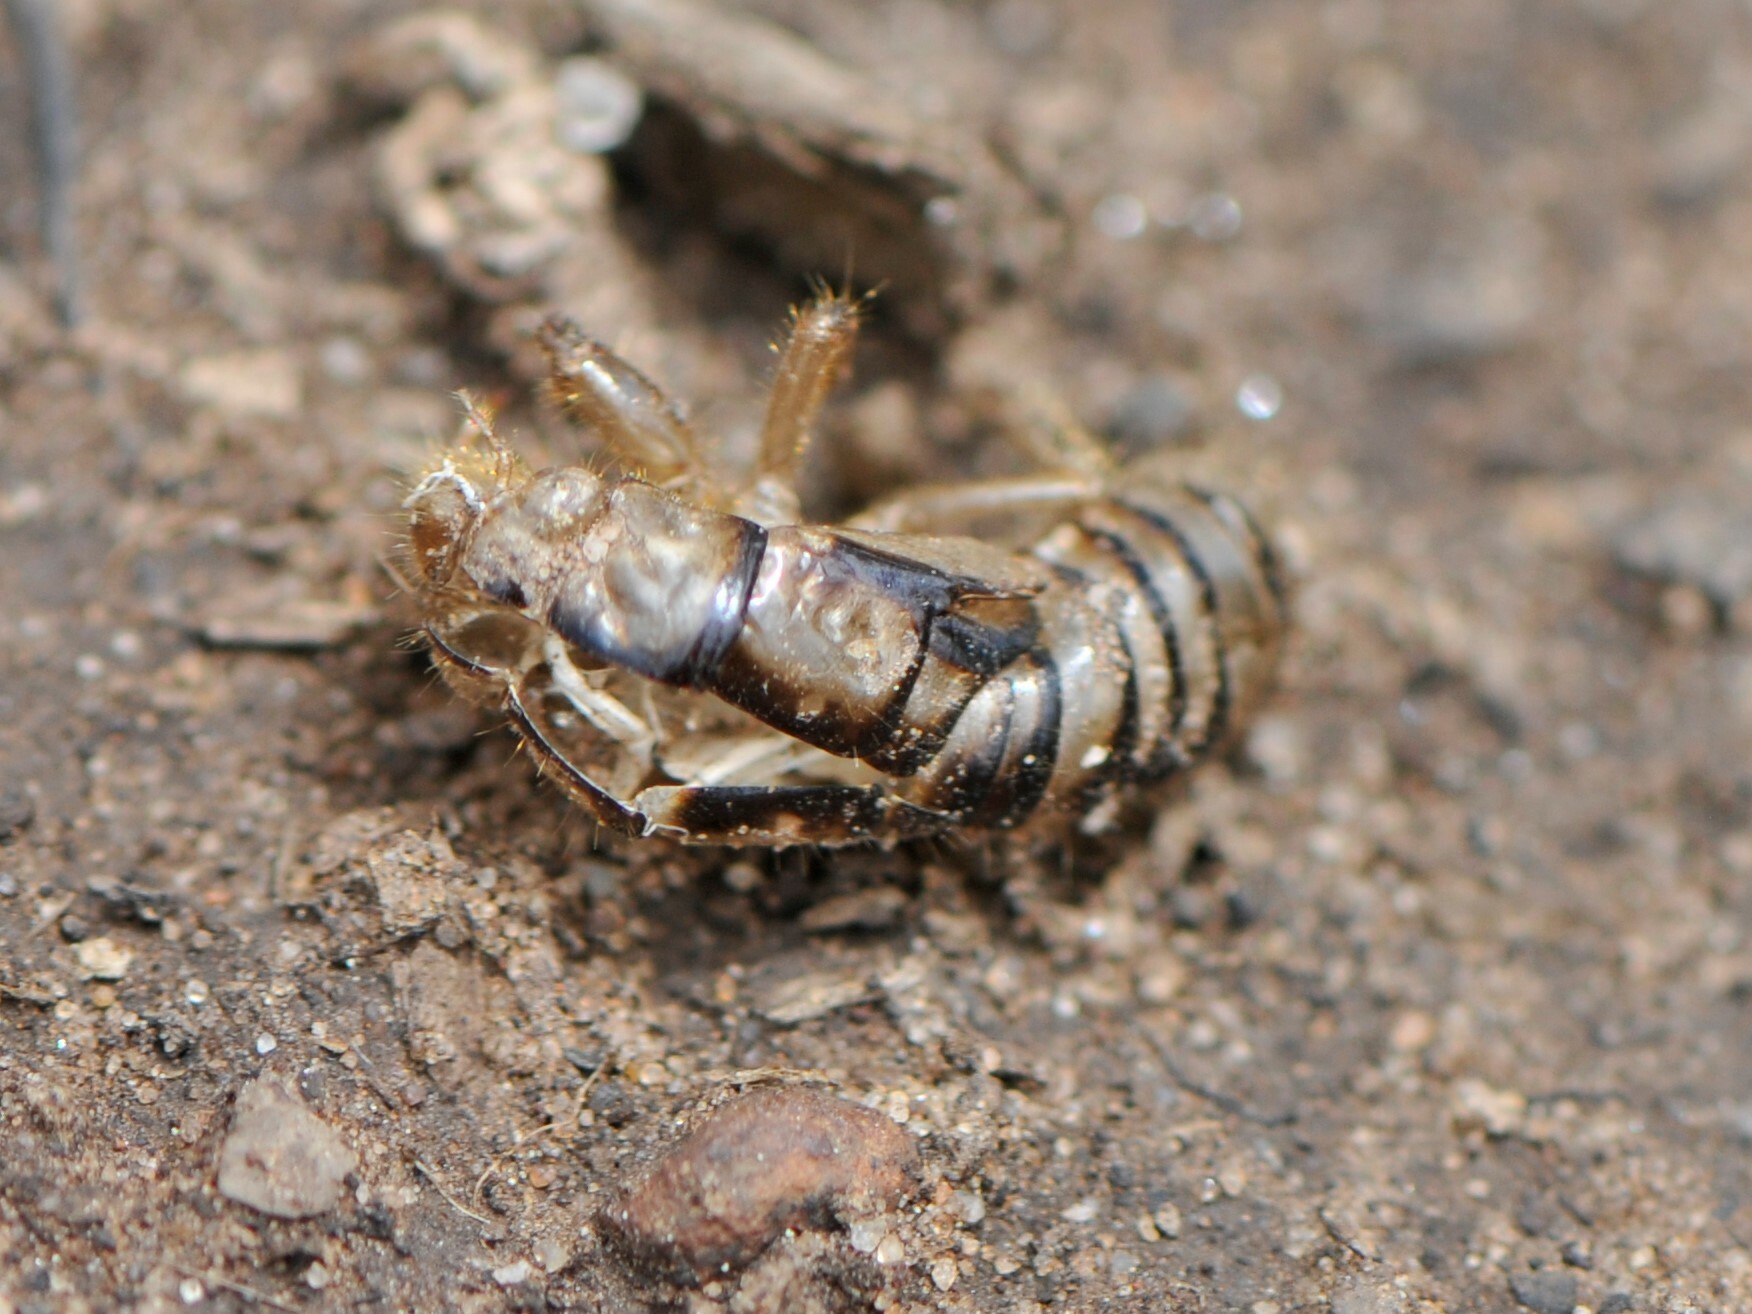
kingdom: Animalia
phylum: Arthropoda
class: Insecta
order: Hemiptera
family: Cicadidae
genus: Platypedia
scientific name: Platypedia
